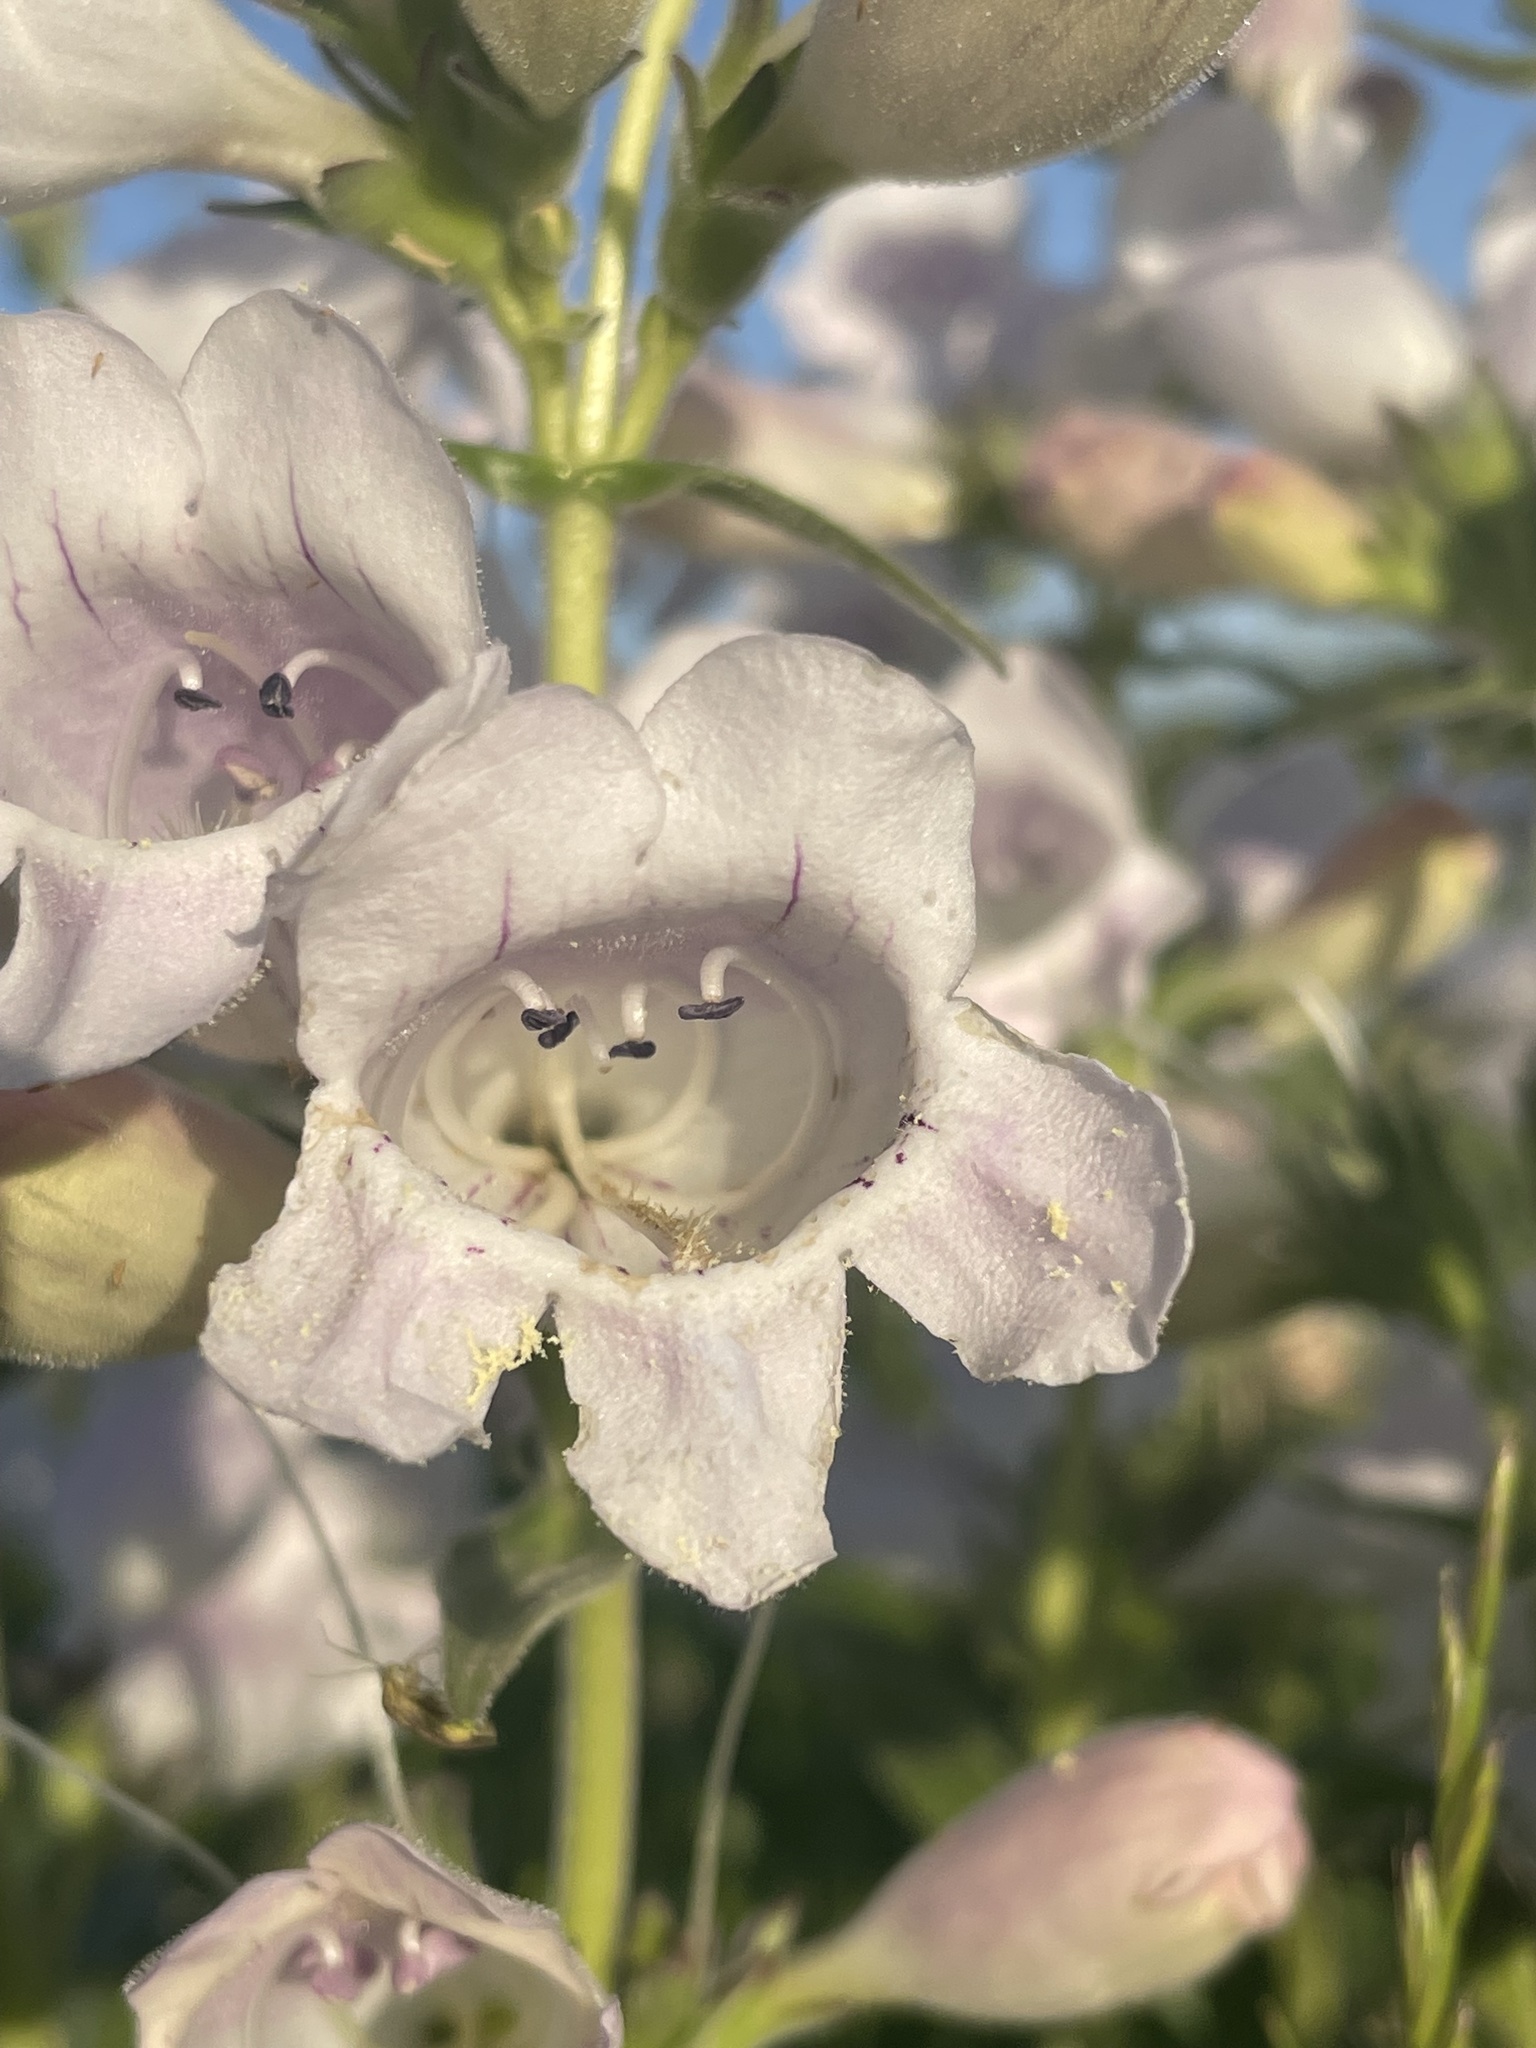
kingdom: Plantae
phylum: Tracheophyta
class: Magnoliopsida
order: Lamiales
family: Plantaginaceae
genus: Penstemon
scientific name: Penstemon cobaea
